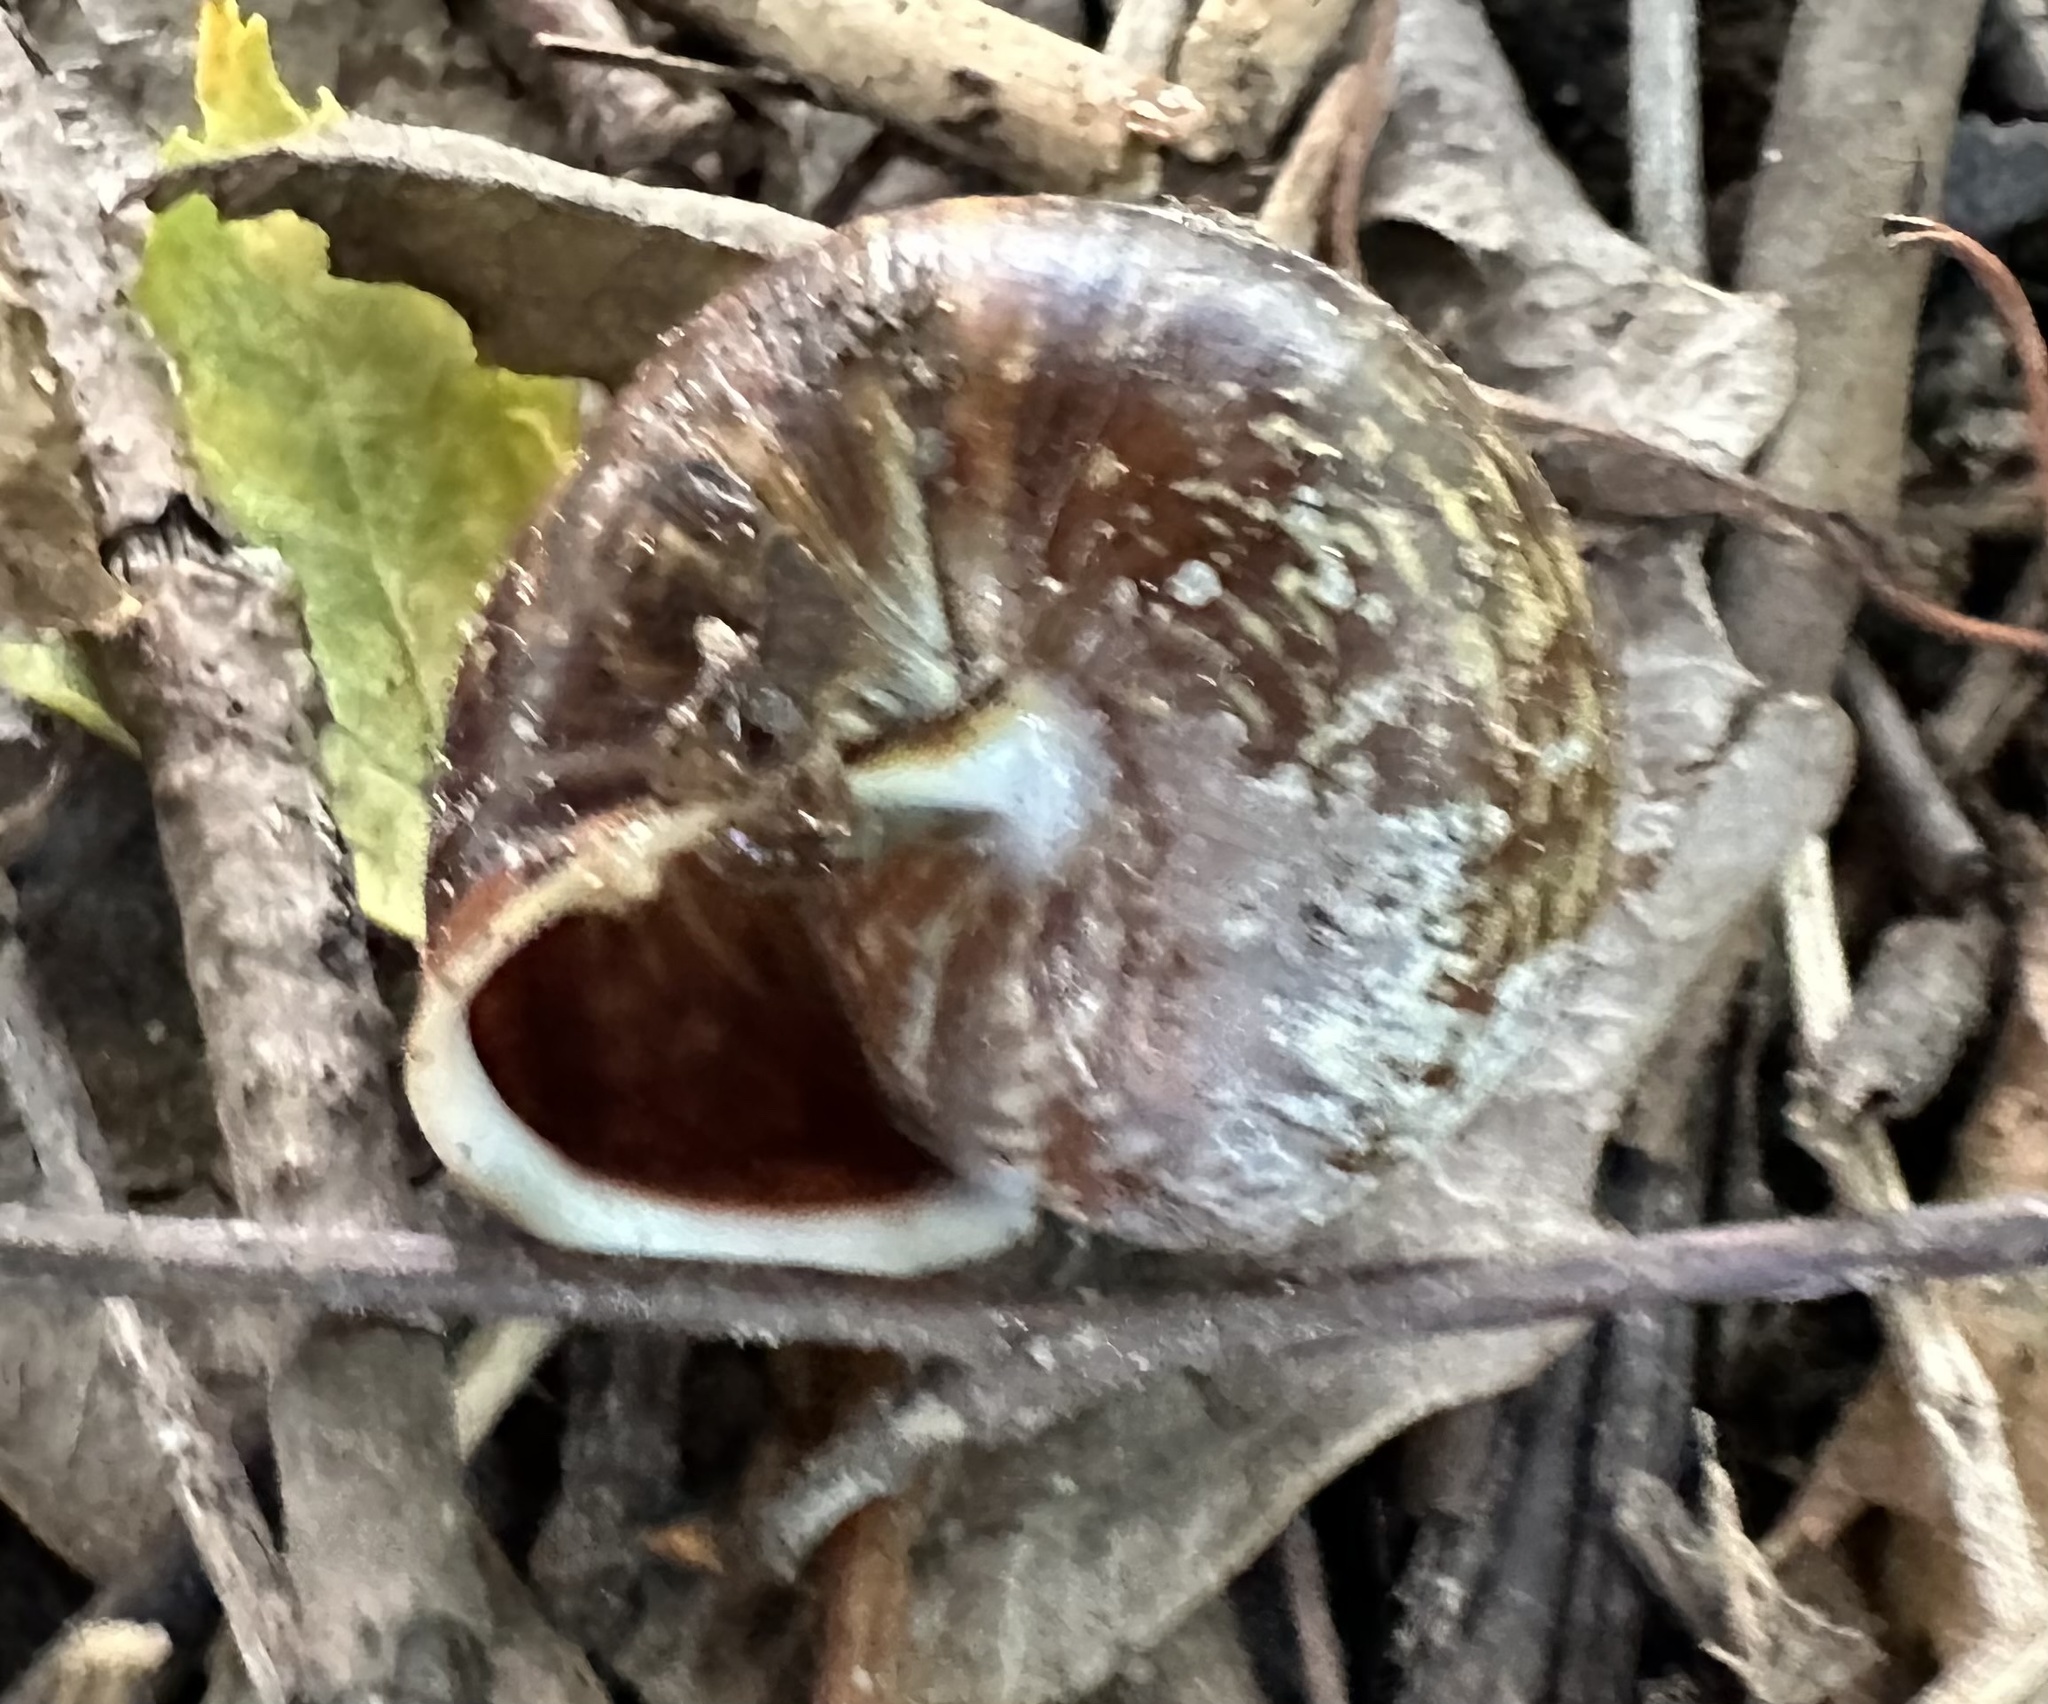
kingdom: Animalia
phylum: Mollusca
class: Gastropoda
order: Stylommatophora
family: Helicidae
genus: Arianta
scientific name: Arianta arbustorum
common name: Copse snail
